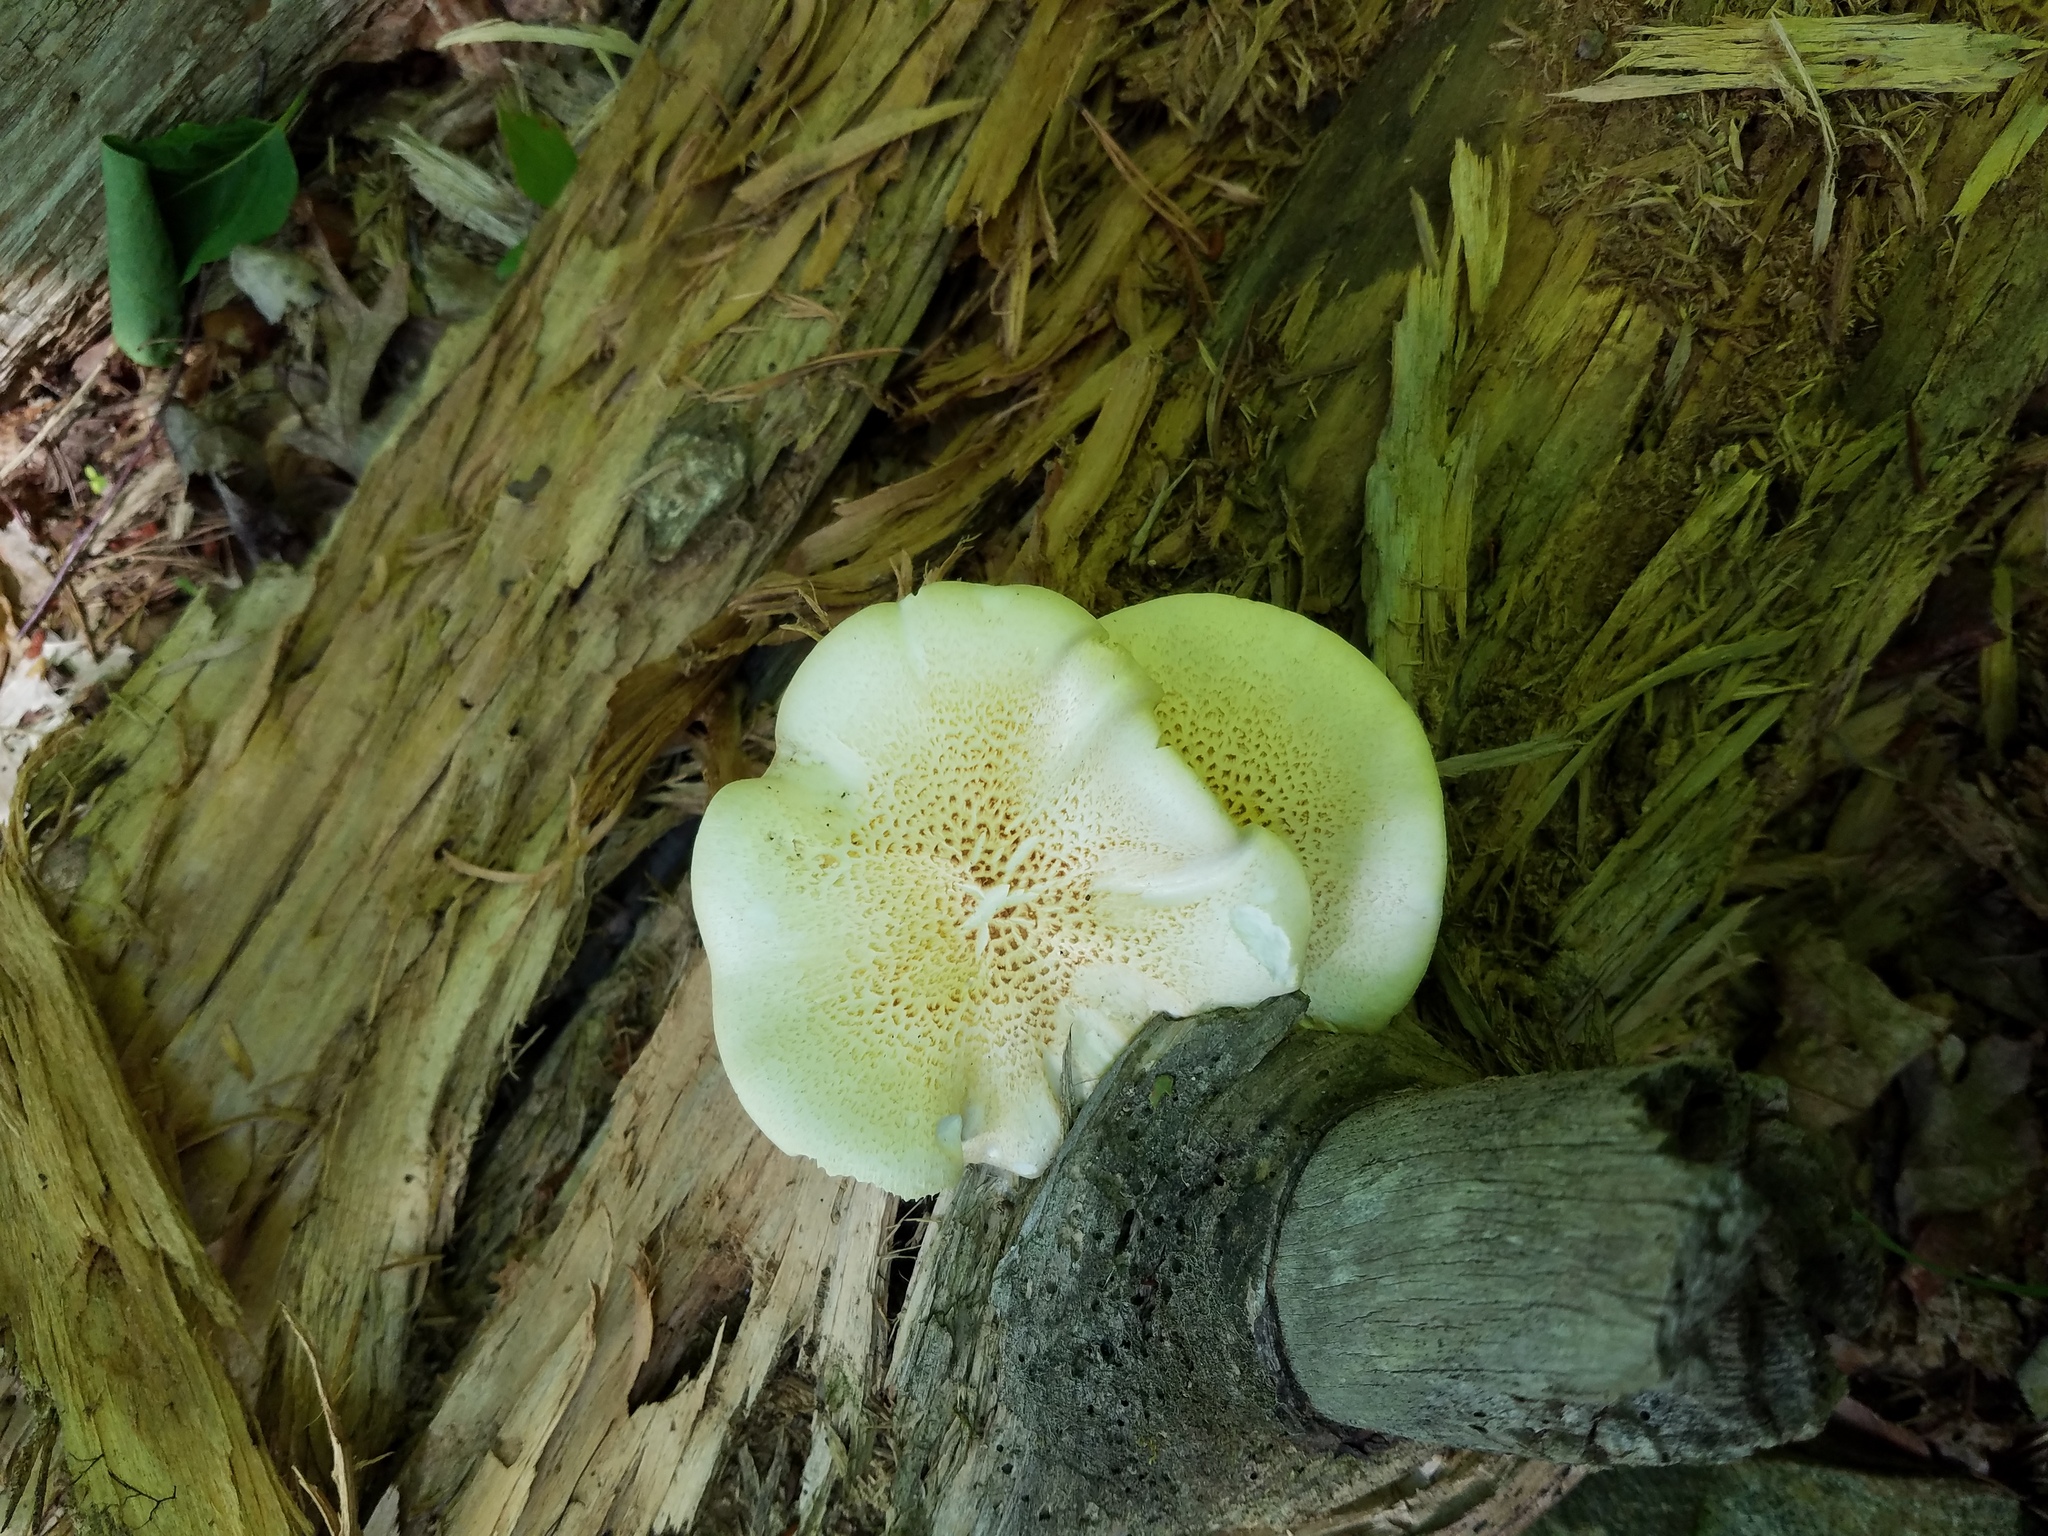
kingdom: Fungi
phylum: Basidiomycota
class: Agaricomycetes
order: Gloeophyllales
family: Gloeophyllaceae
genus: Neolentinus
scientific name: Neolentinus lepideus
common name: Scaly sawgill
